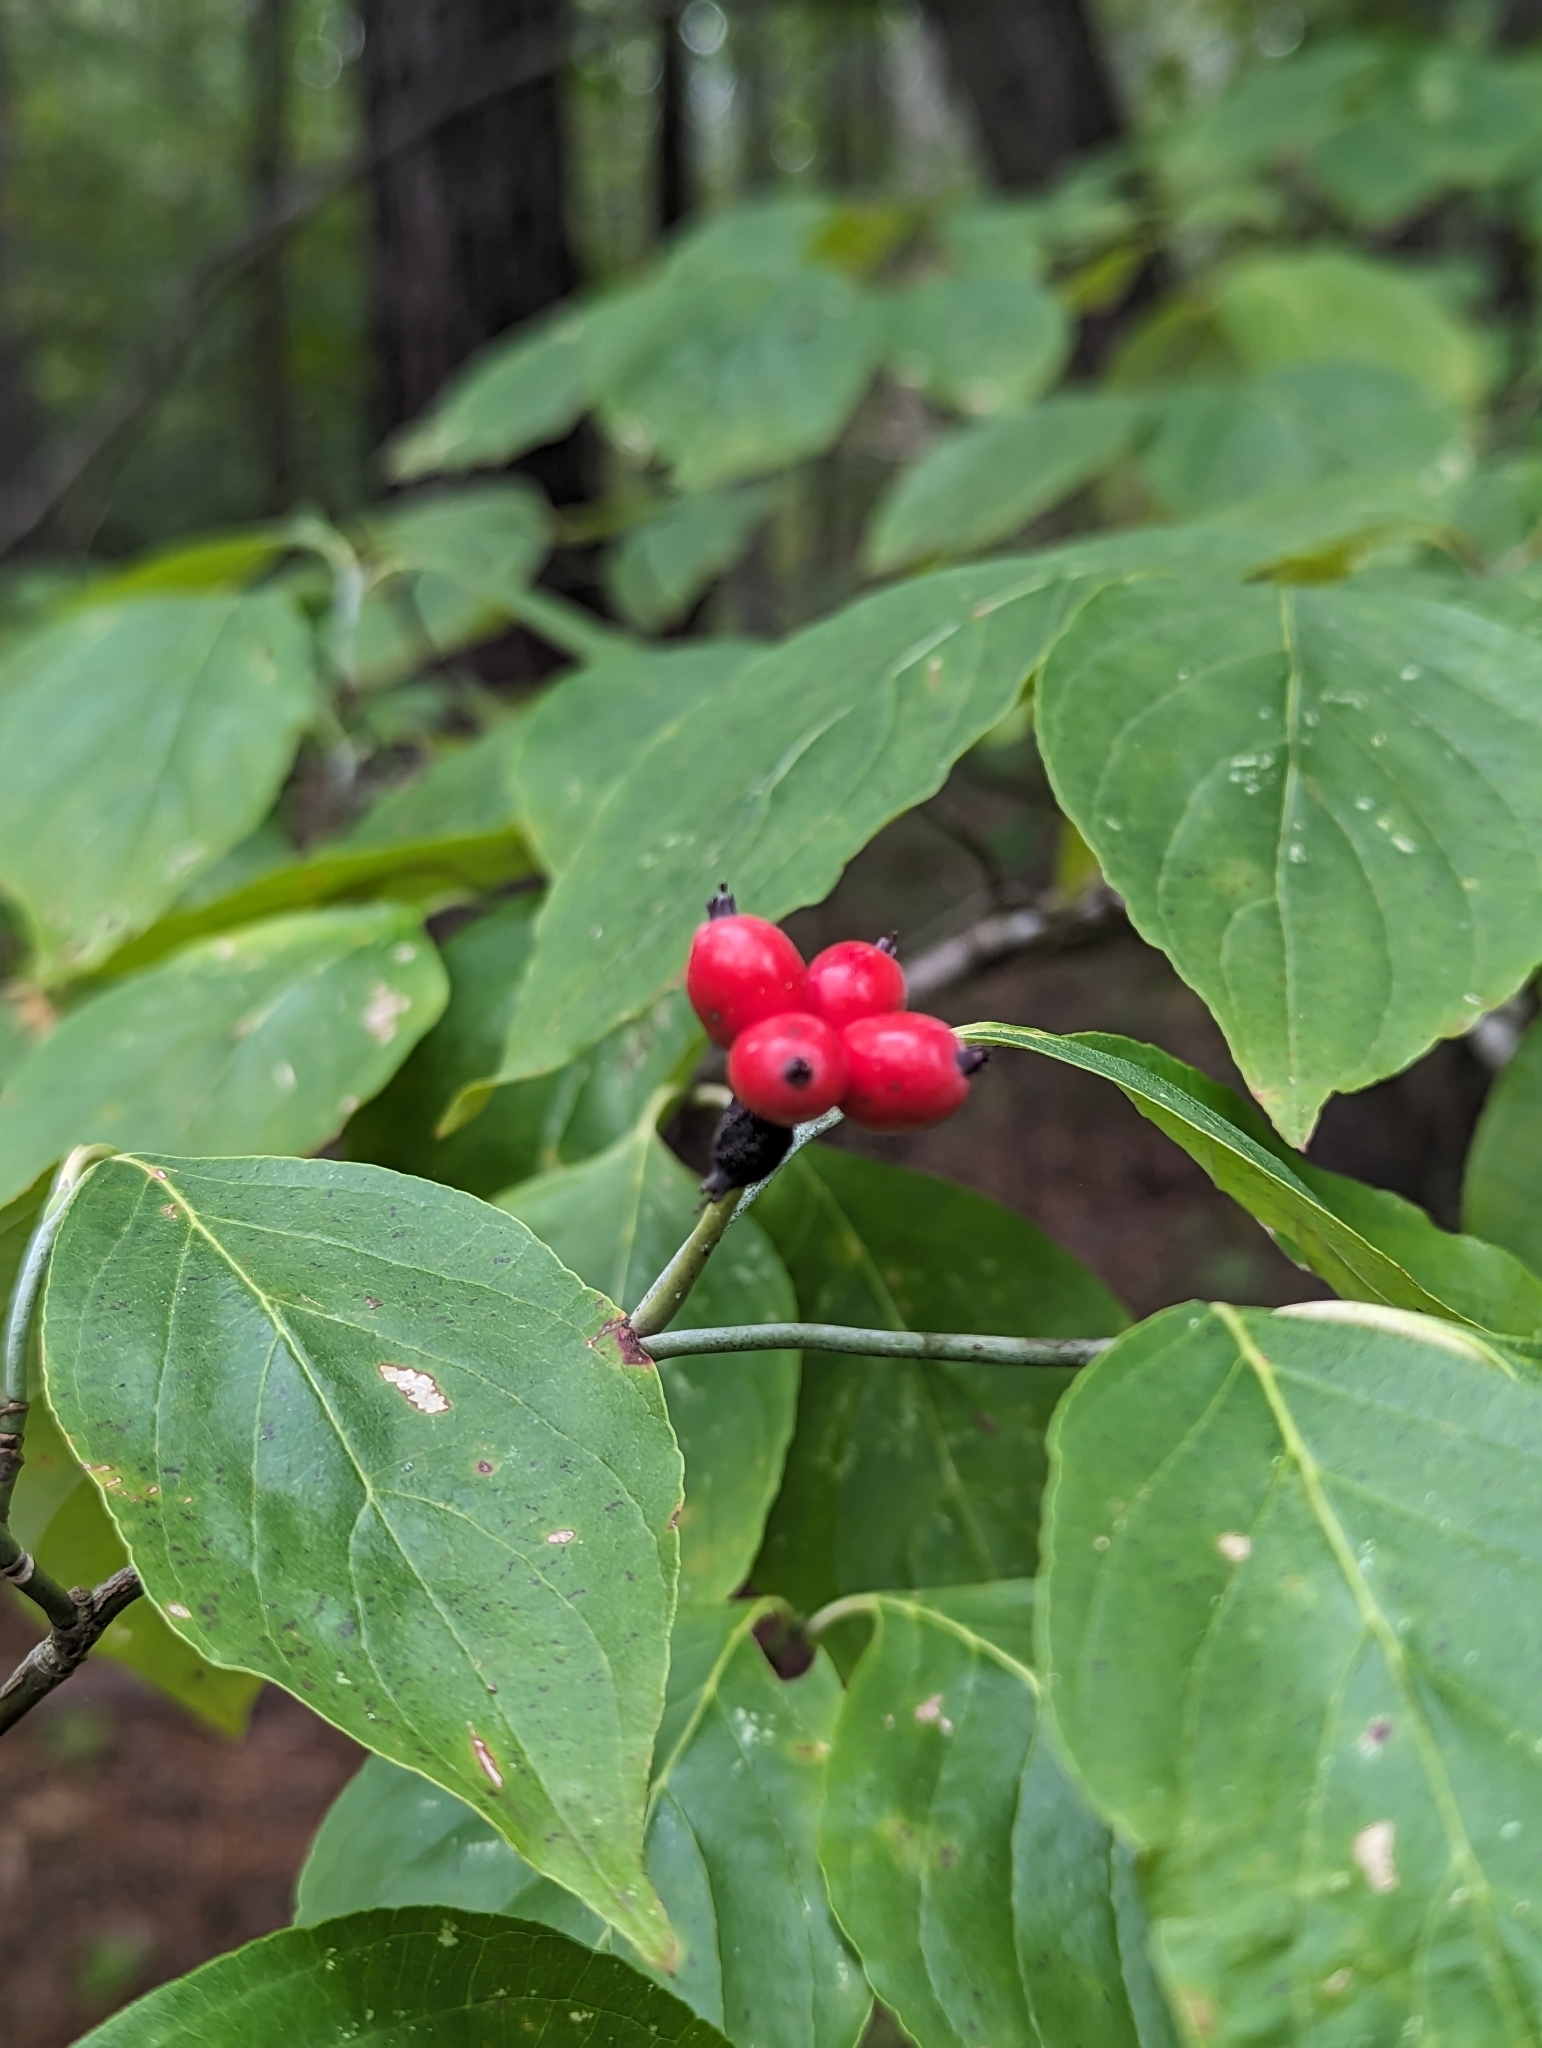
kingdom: Plantae
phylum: Tracheophyta
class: Magnoliopsida
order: Cornales
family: Cornaceae
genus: Cornus
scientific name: Cornus florida
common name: Flowering dogwood
